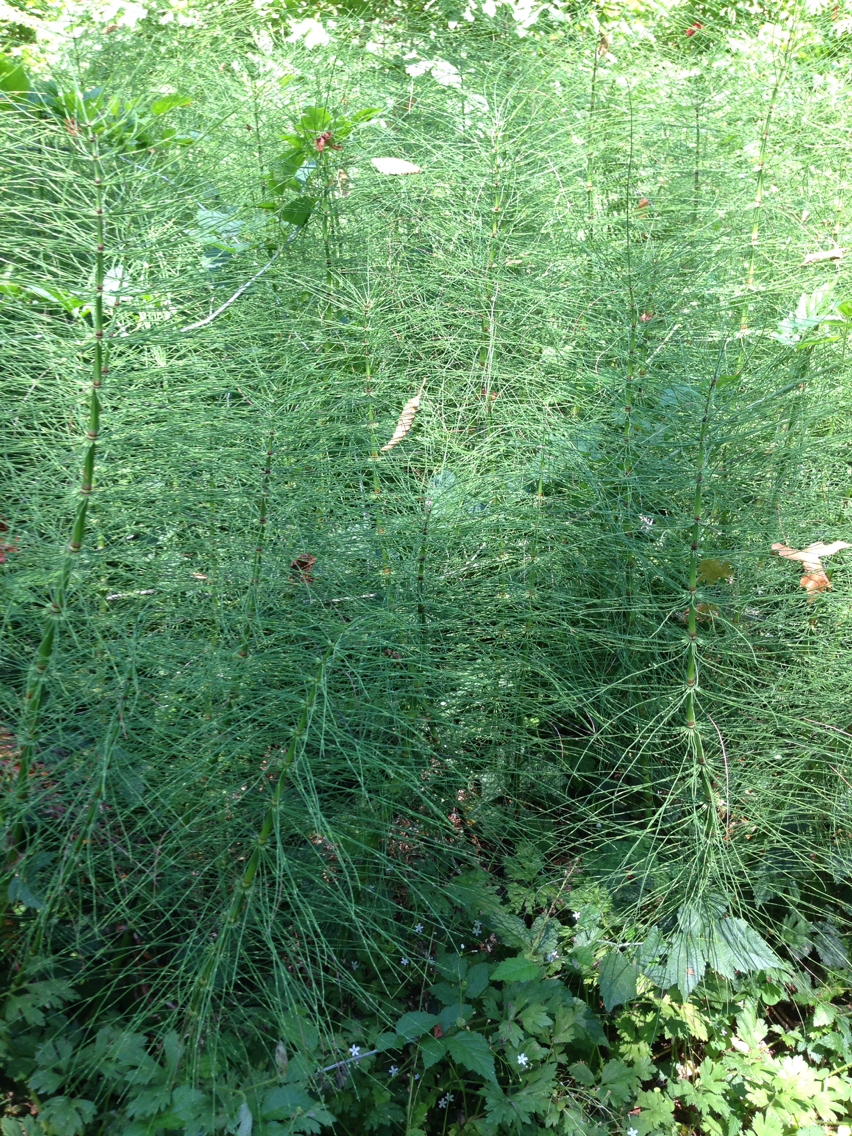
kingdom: Plantae
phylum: Tracheophyta
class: Polypodiopsida
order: Equisetales
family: Equisetaceae
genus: Equisetum
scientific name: Equisetum braunii
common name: Braun's horsetail
